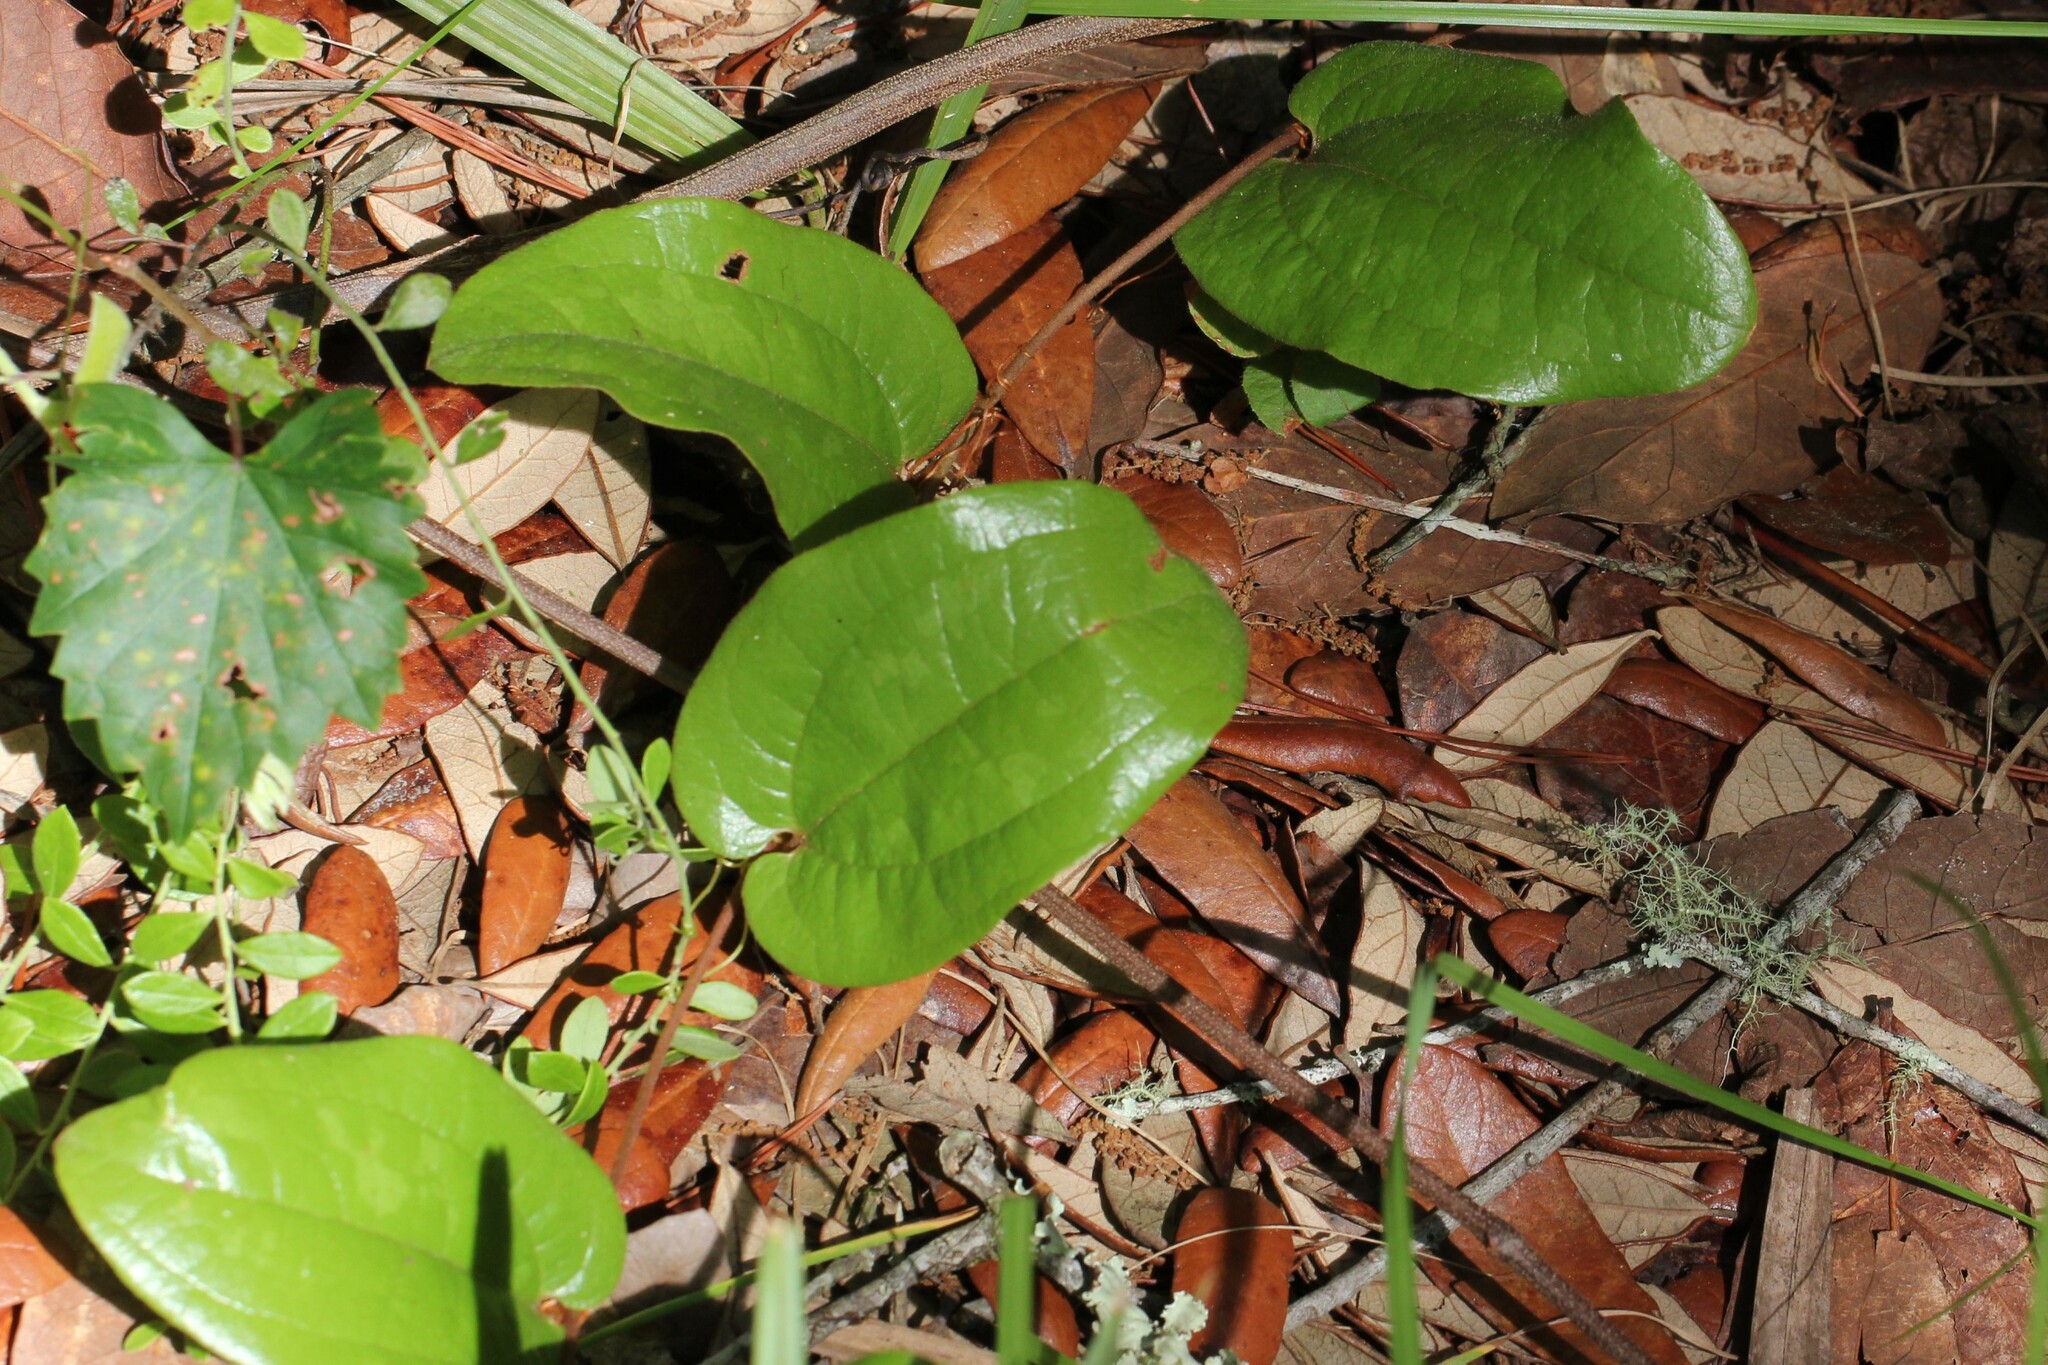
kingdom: Plantae
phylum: Tracheophyta
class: Liliopsida
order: Liliales
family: Smilacaceae
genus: Smilax
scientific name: Smilax pumila
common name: Sarsaparilla-vine
